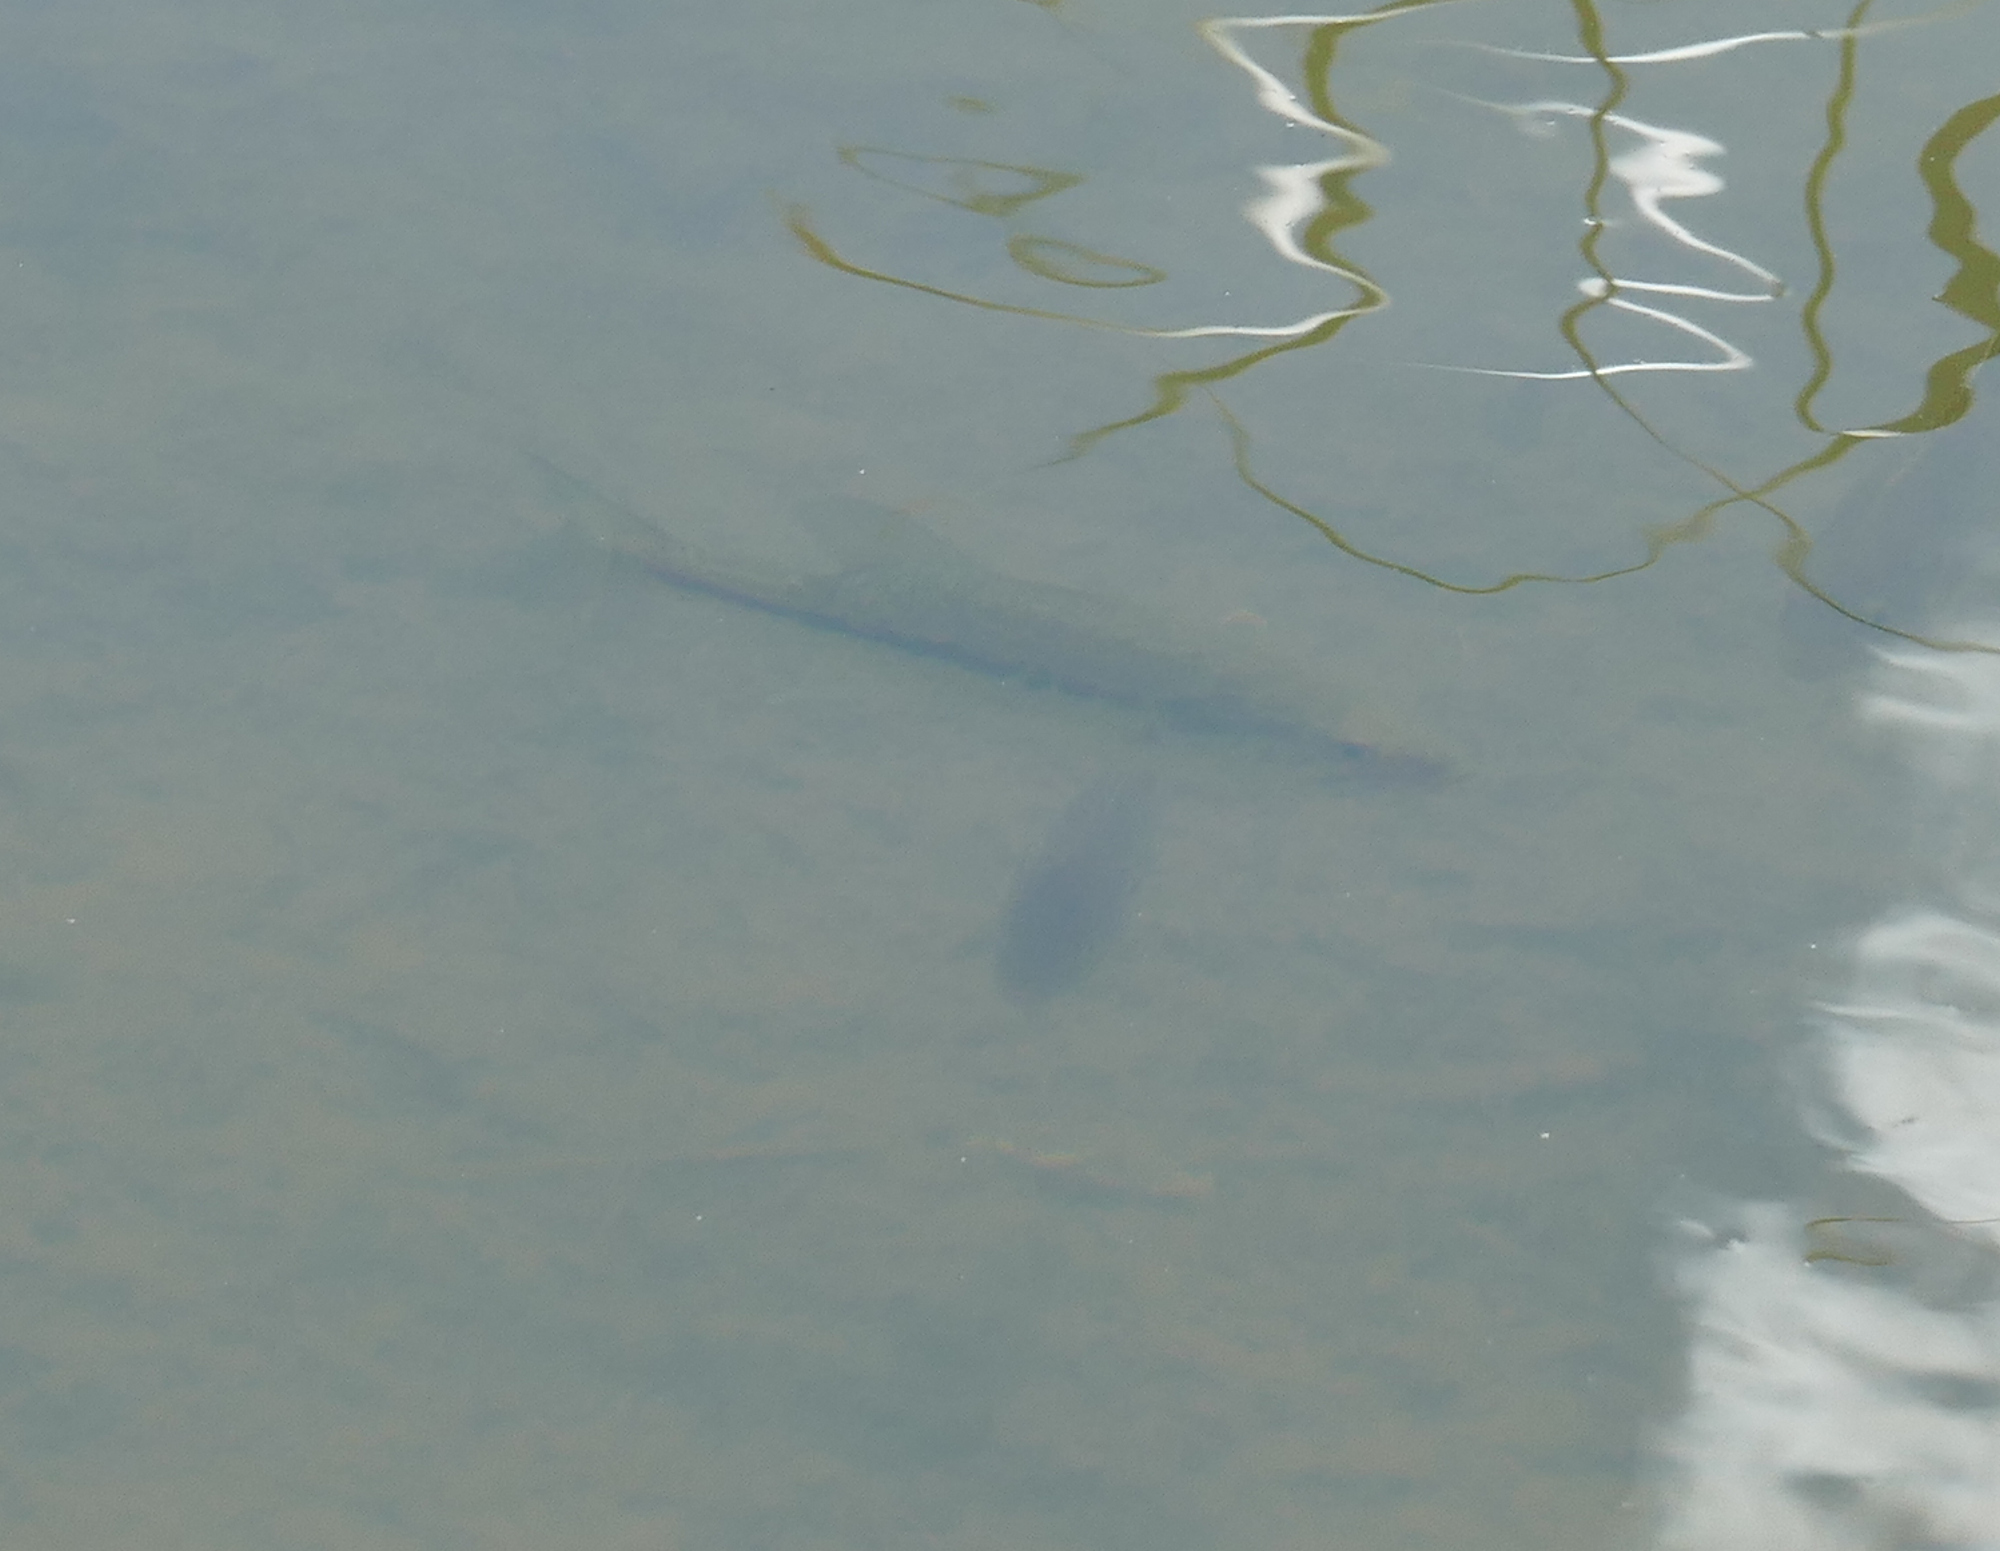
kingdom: Animalia
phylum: Chordata
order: Perciformes
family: Centrarchidae
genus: Micropterus
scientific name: Micropterus
